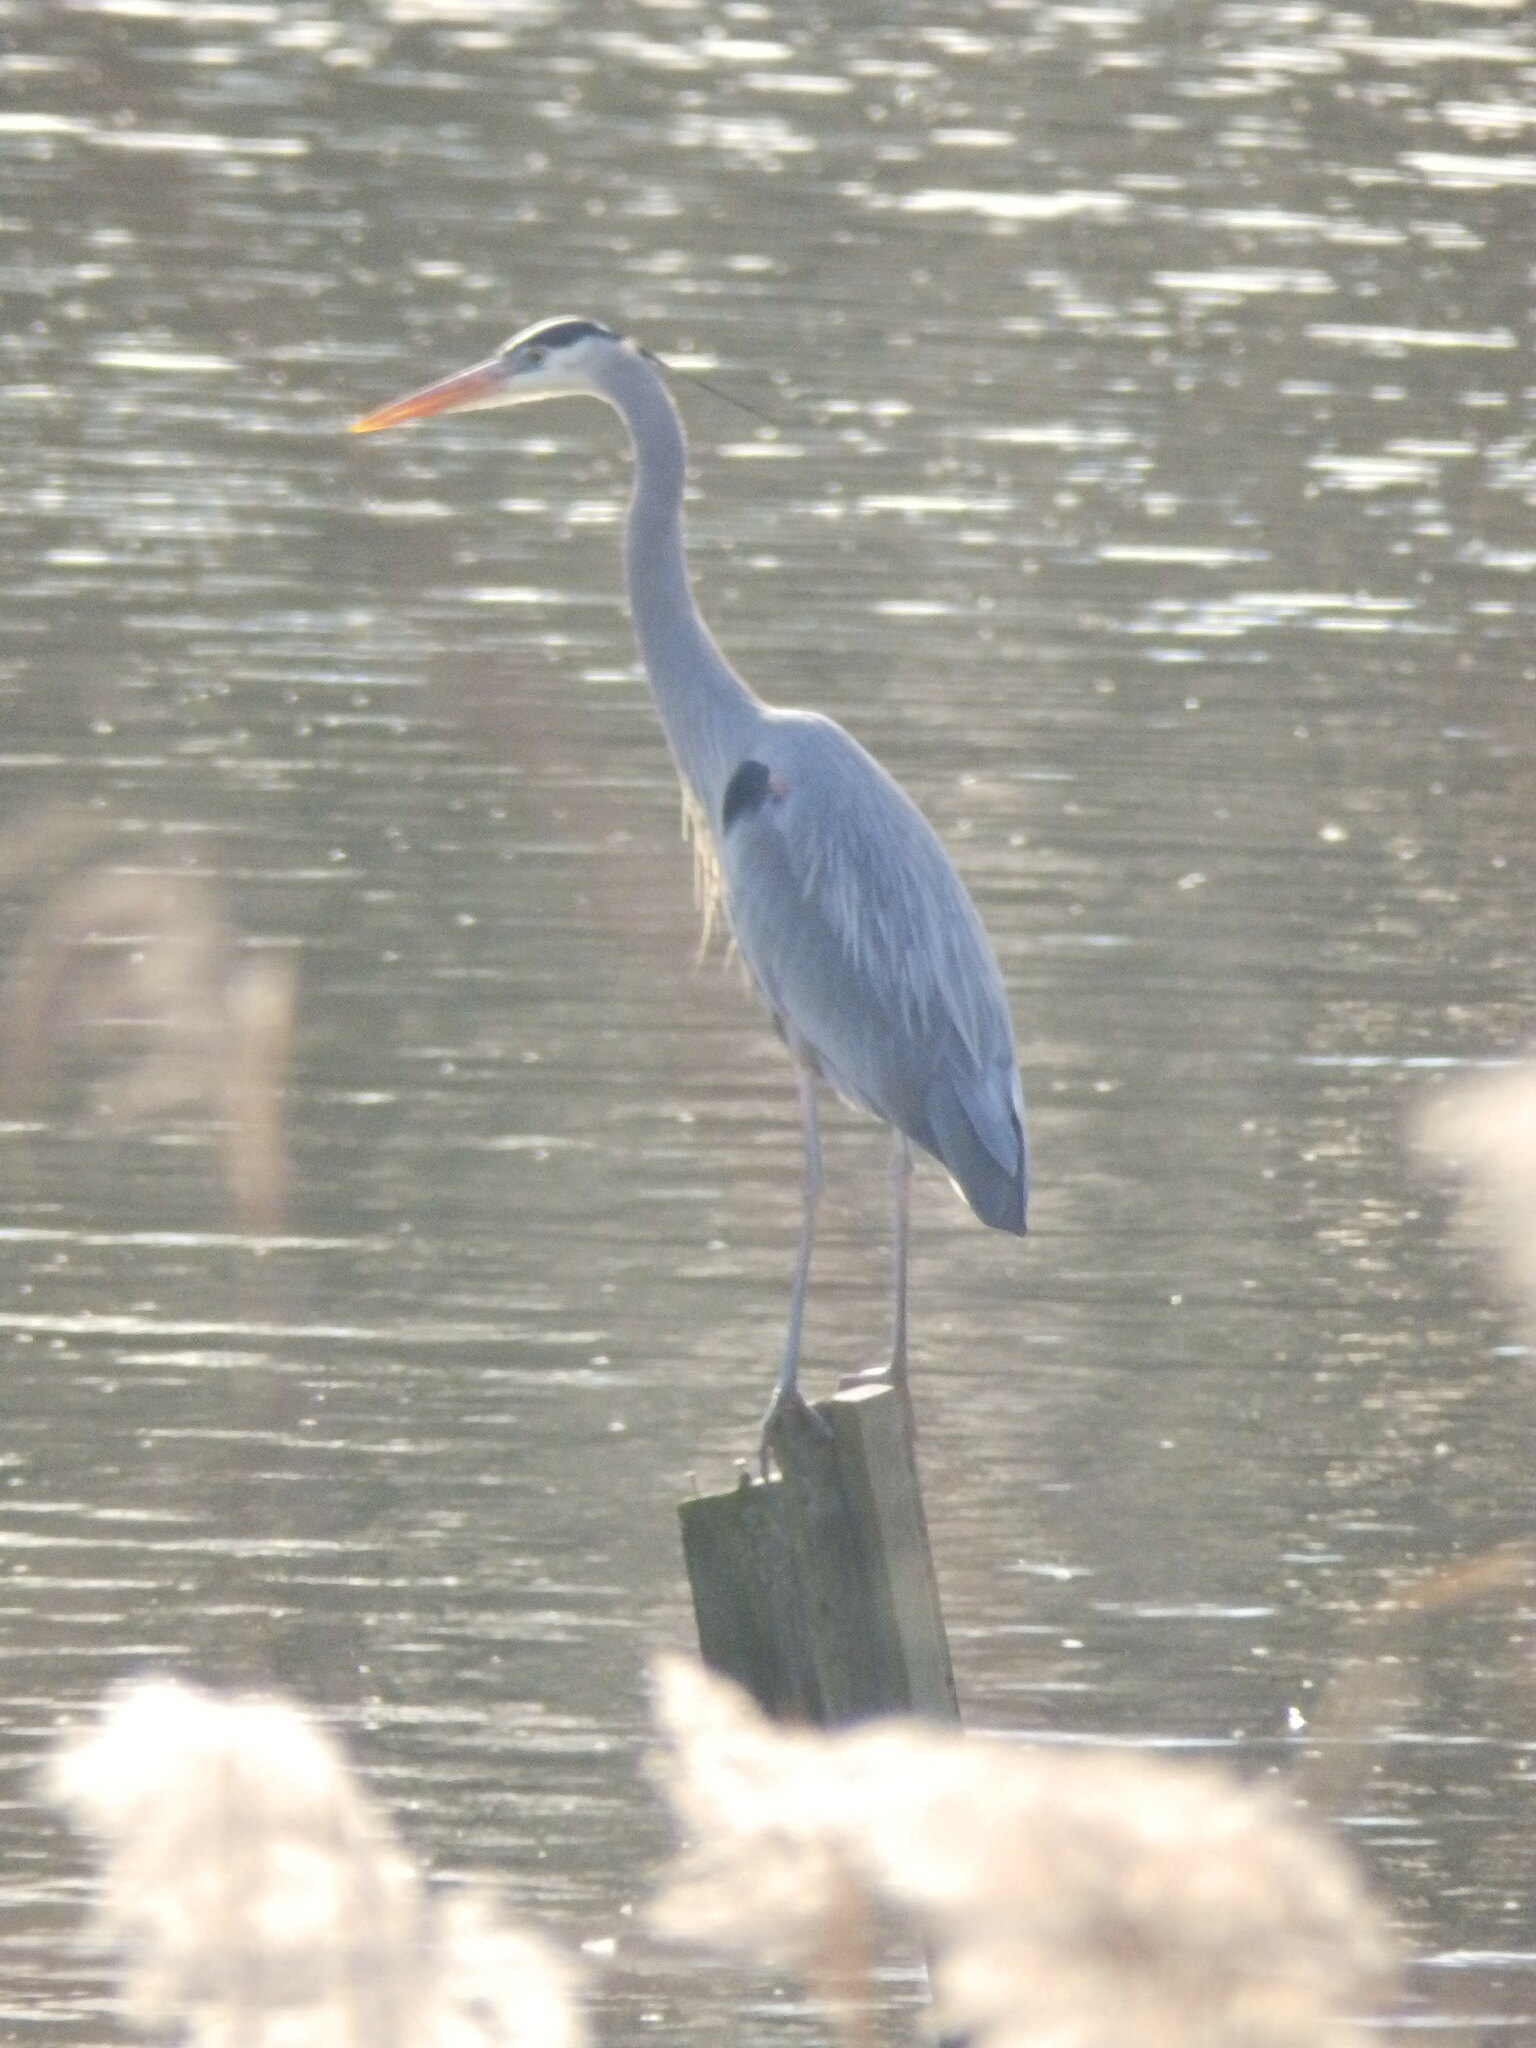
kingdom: Animalia
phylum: Chordata
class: Aves
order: Pelecaniformes
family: Ardeidae
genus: Ardea
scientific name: Ardea herodias
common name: Great blue heron
